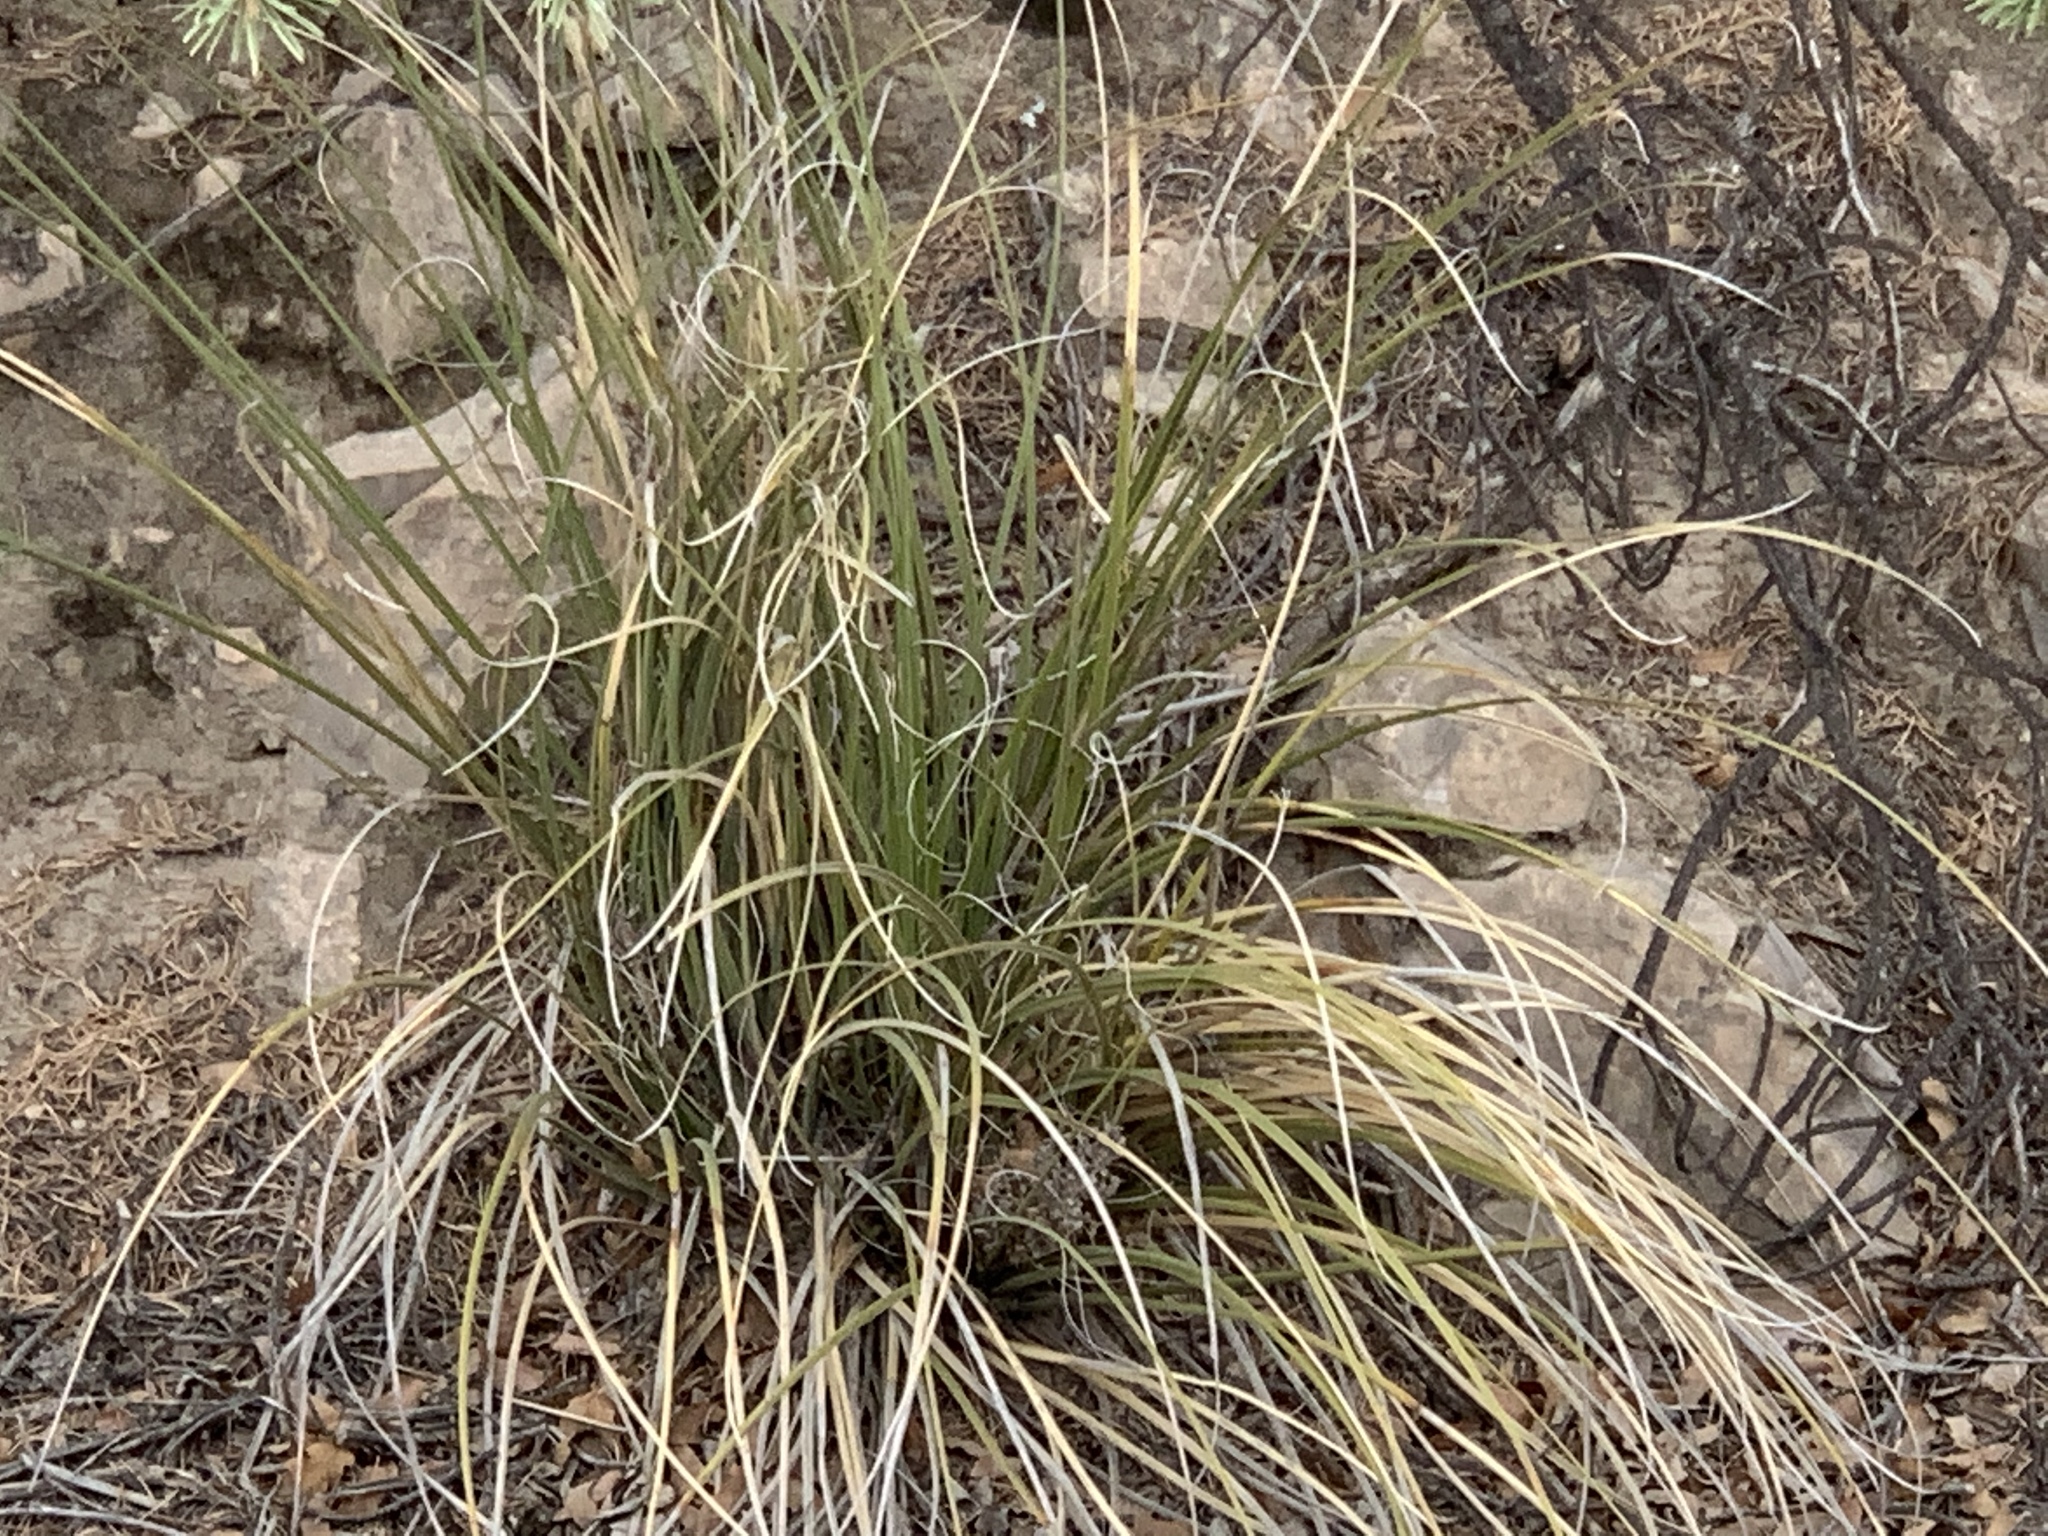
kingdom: Plantae
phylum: Tracheophyta
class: Liliopsida
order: Asparagales
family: Asparagaceae
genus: Nolina
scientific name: Nolina microcarpa
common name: Bear-grass
